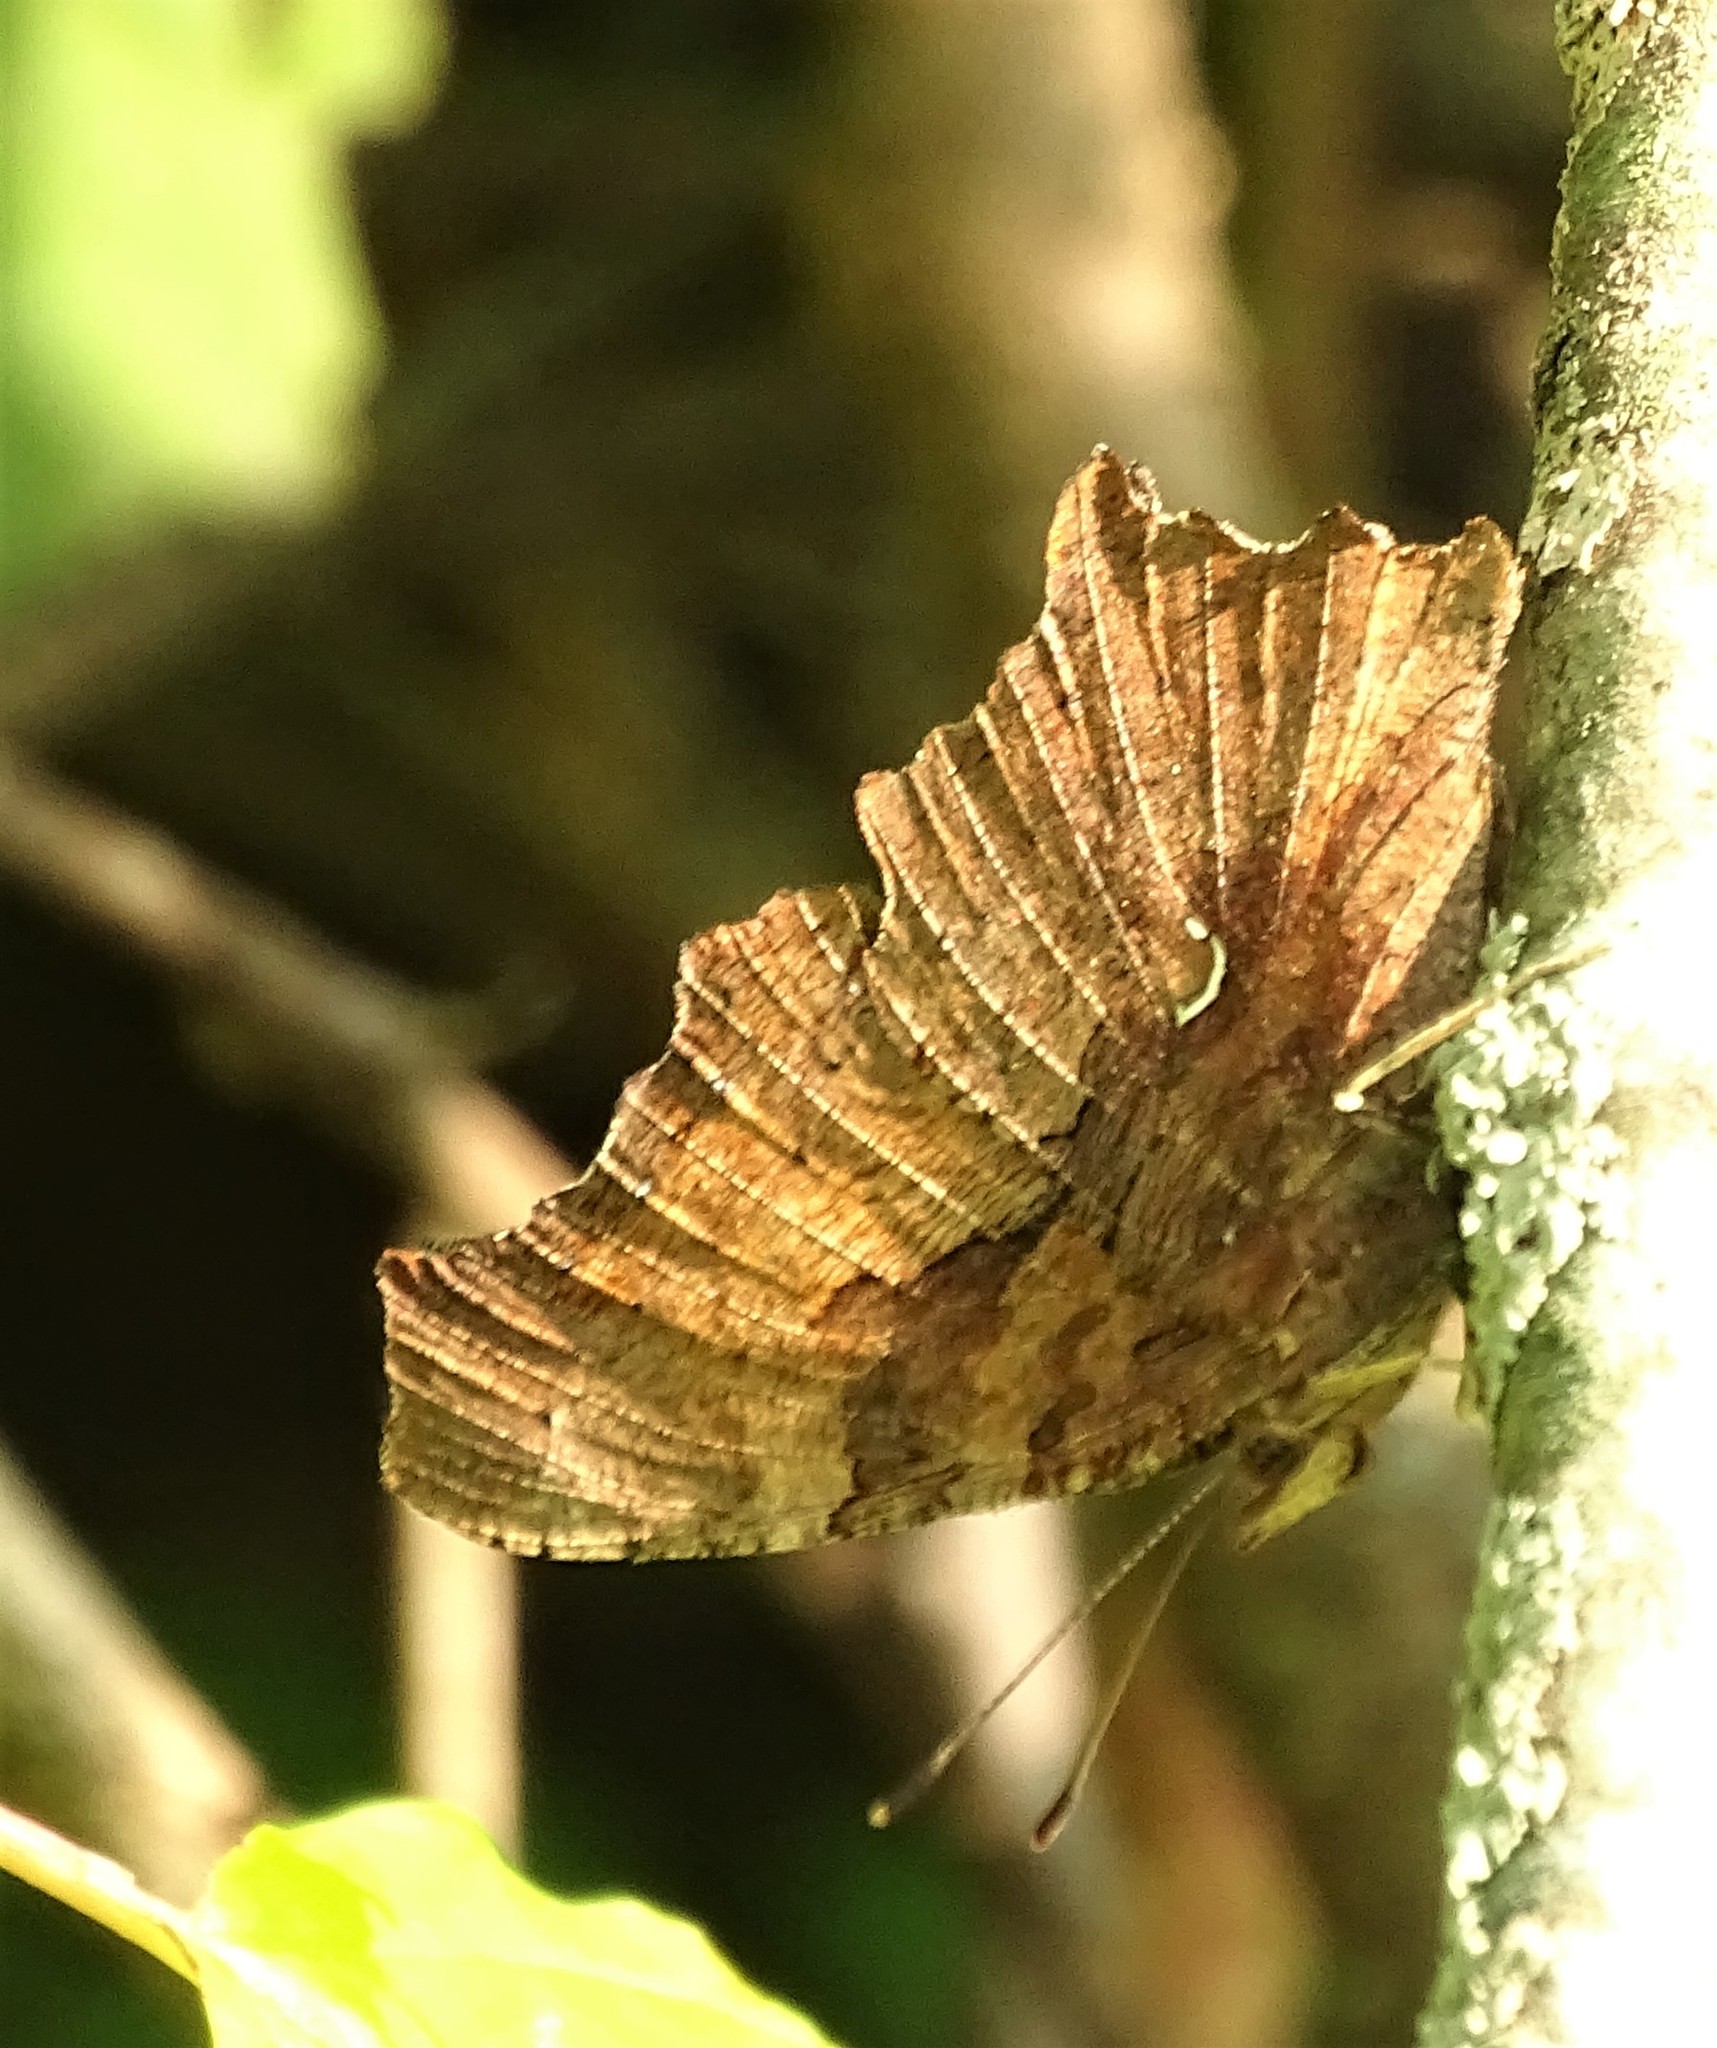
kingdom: Animalia
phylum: Arthropoda
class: Insecta
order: Lepidoptera
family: Nymphalidae
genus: Polygonia
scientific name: Polygonia comma
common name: Eastern comma
